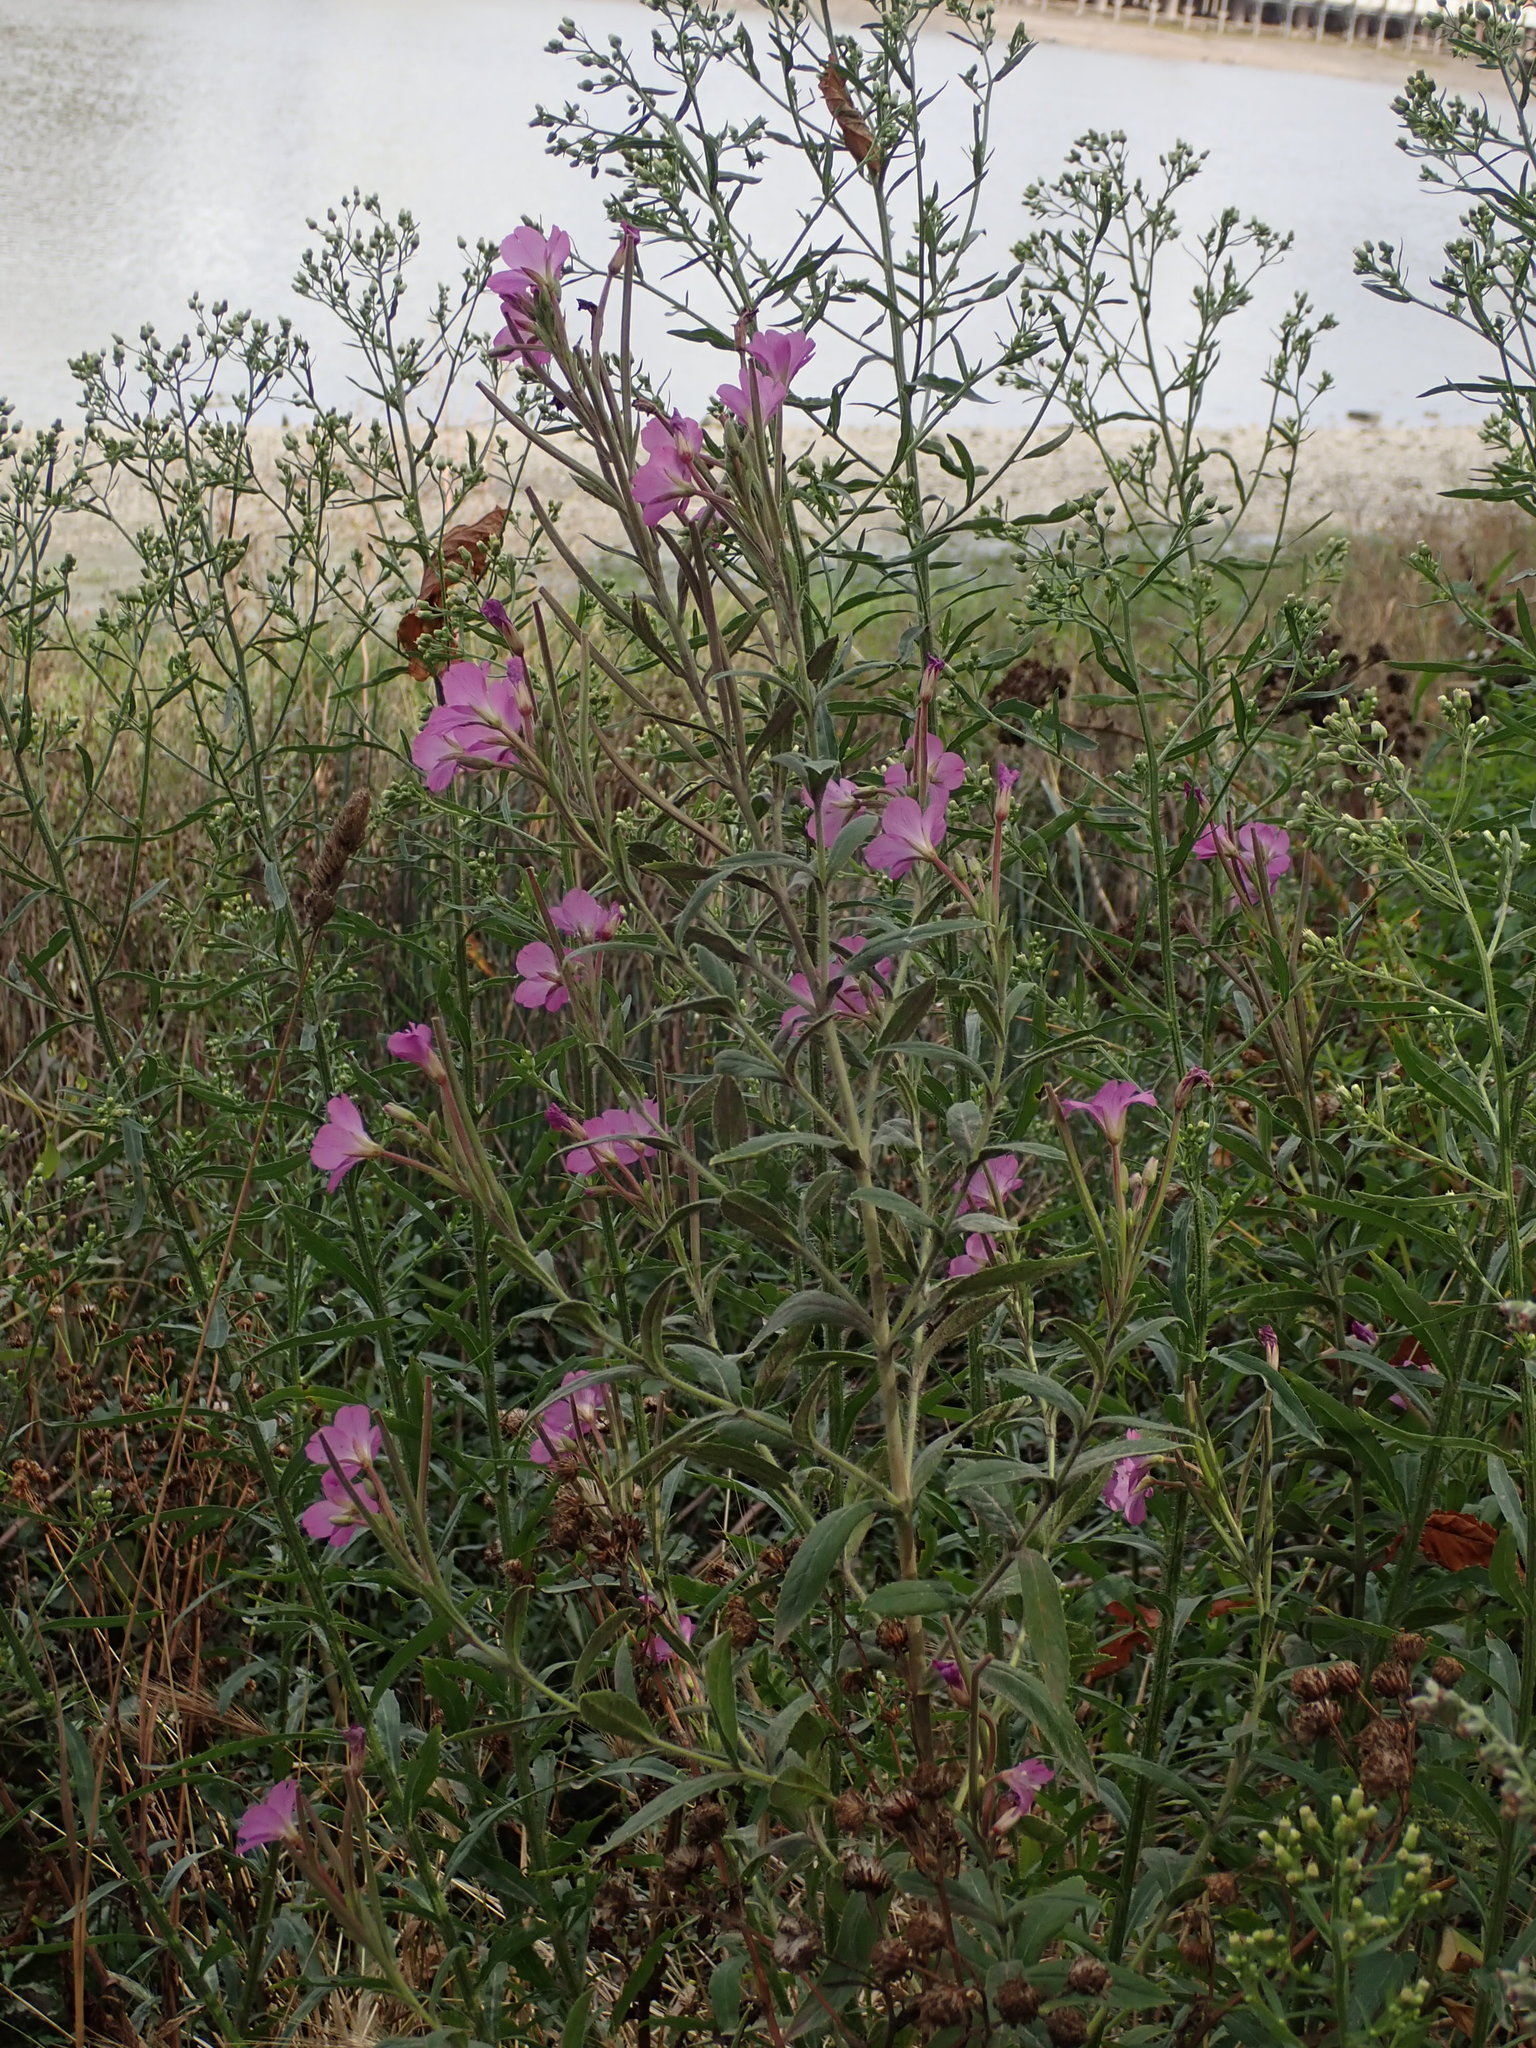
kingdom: Plantae
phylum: Tracheophyta
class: Magnoliopsida
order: Myrtales
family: Onagraceae
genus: Epilobium
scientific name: Epilobium hirsutum
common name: Great willowherb
